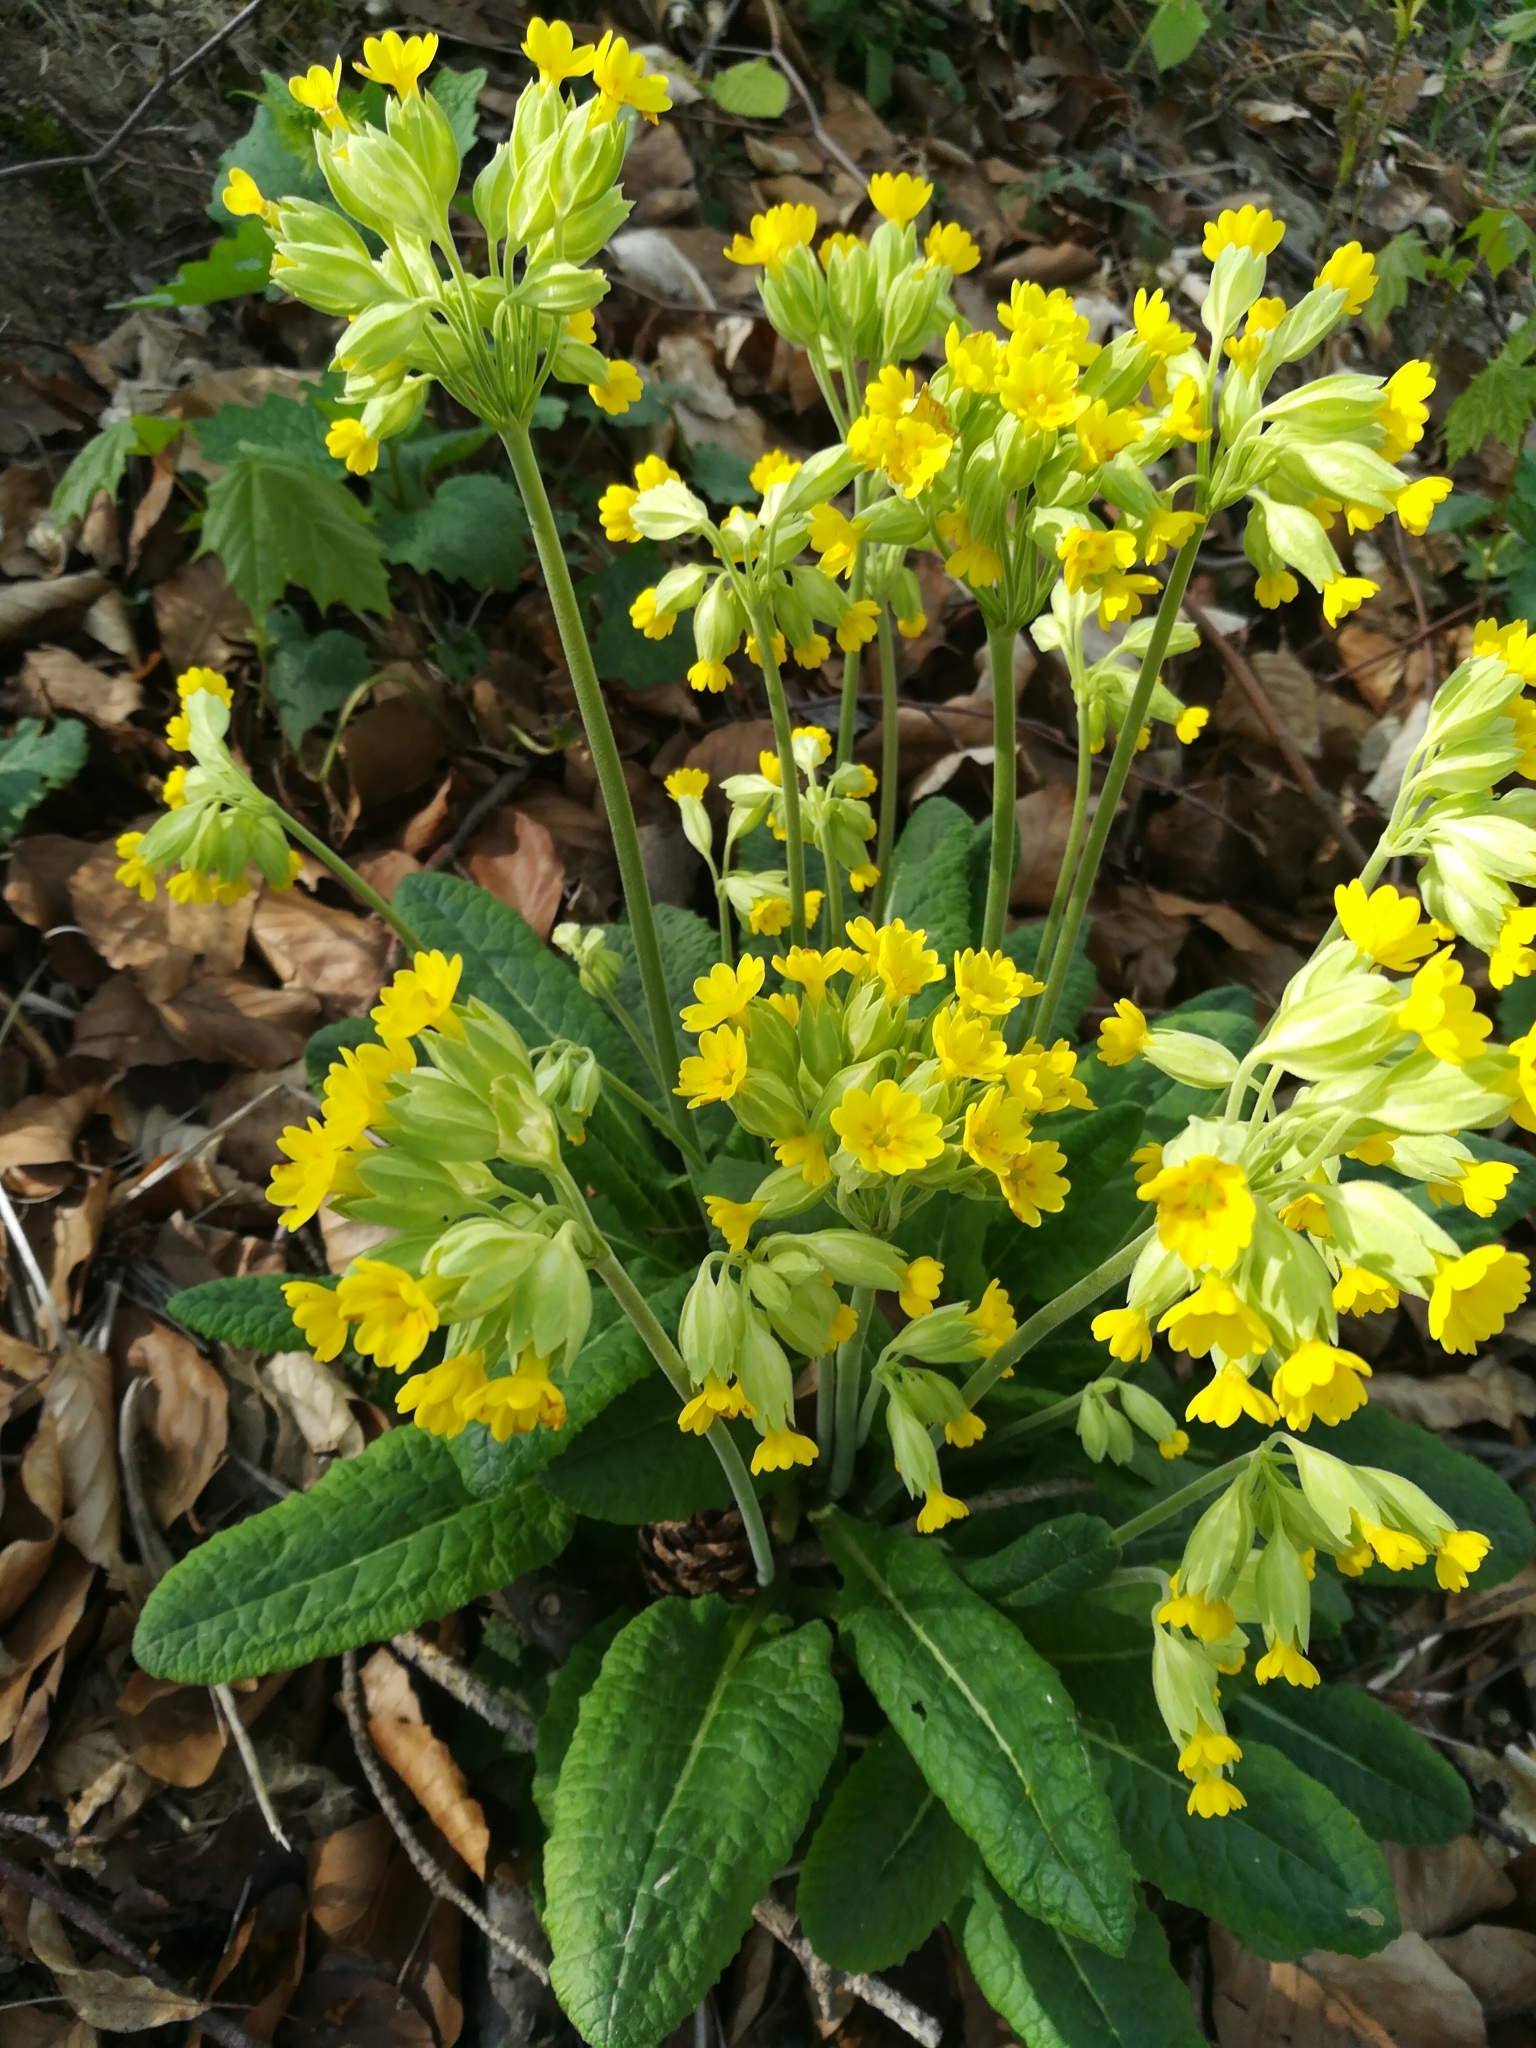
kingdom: Plantae
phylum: Tracheophyta
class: Magnoliopsida
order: Ericales
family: Primulaceae
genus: Primula
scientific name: Primula veris
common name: Cowslip
